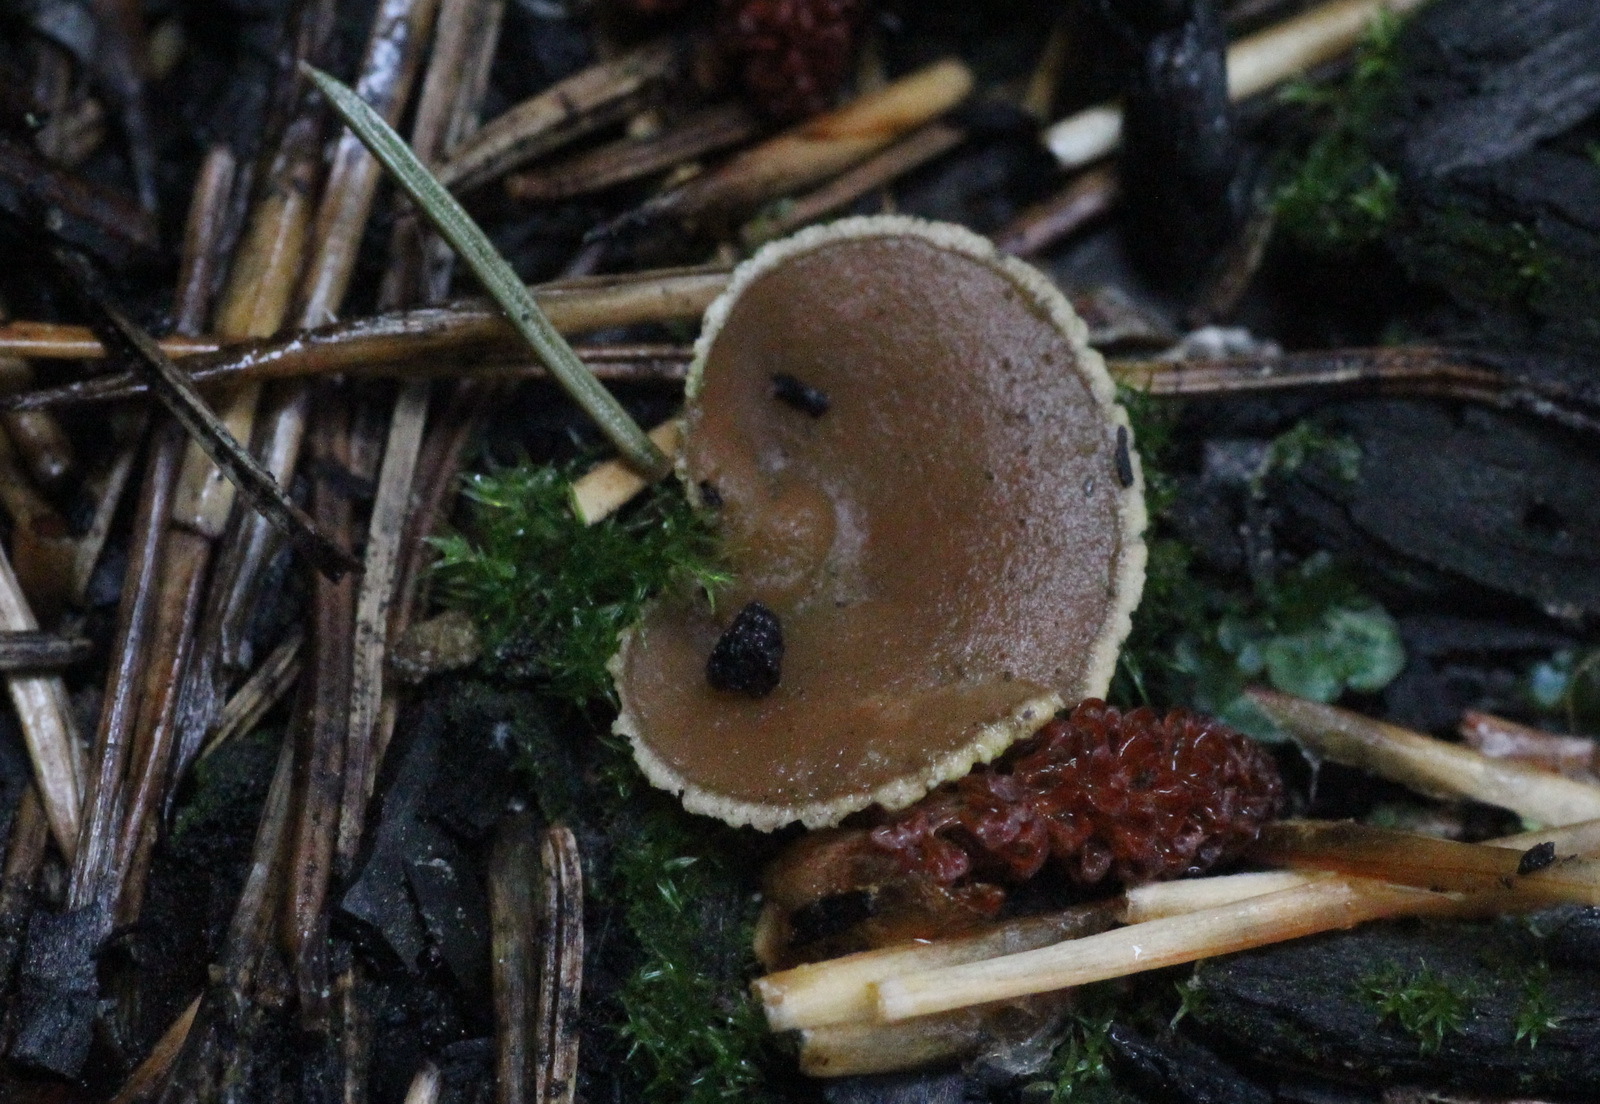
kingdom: Fungi
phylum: Ascomycota
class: Pezizomycetes
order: Pezizales
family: Pyronemataceae
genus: Geopyxis
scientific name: Geopyxis carbonaria
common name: Stalked bonfire cup
